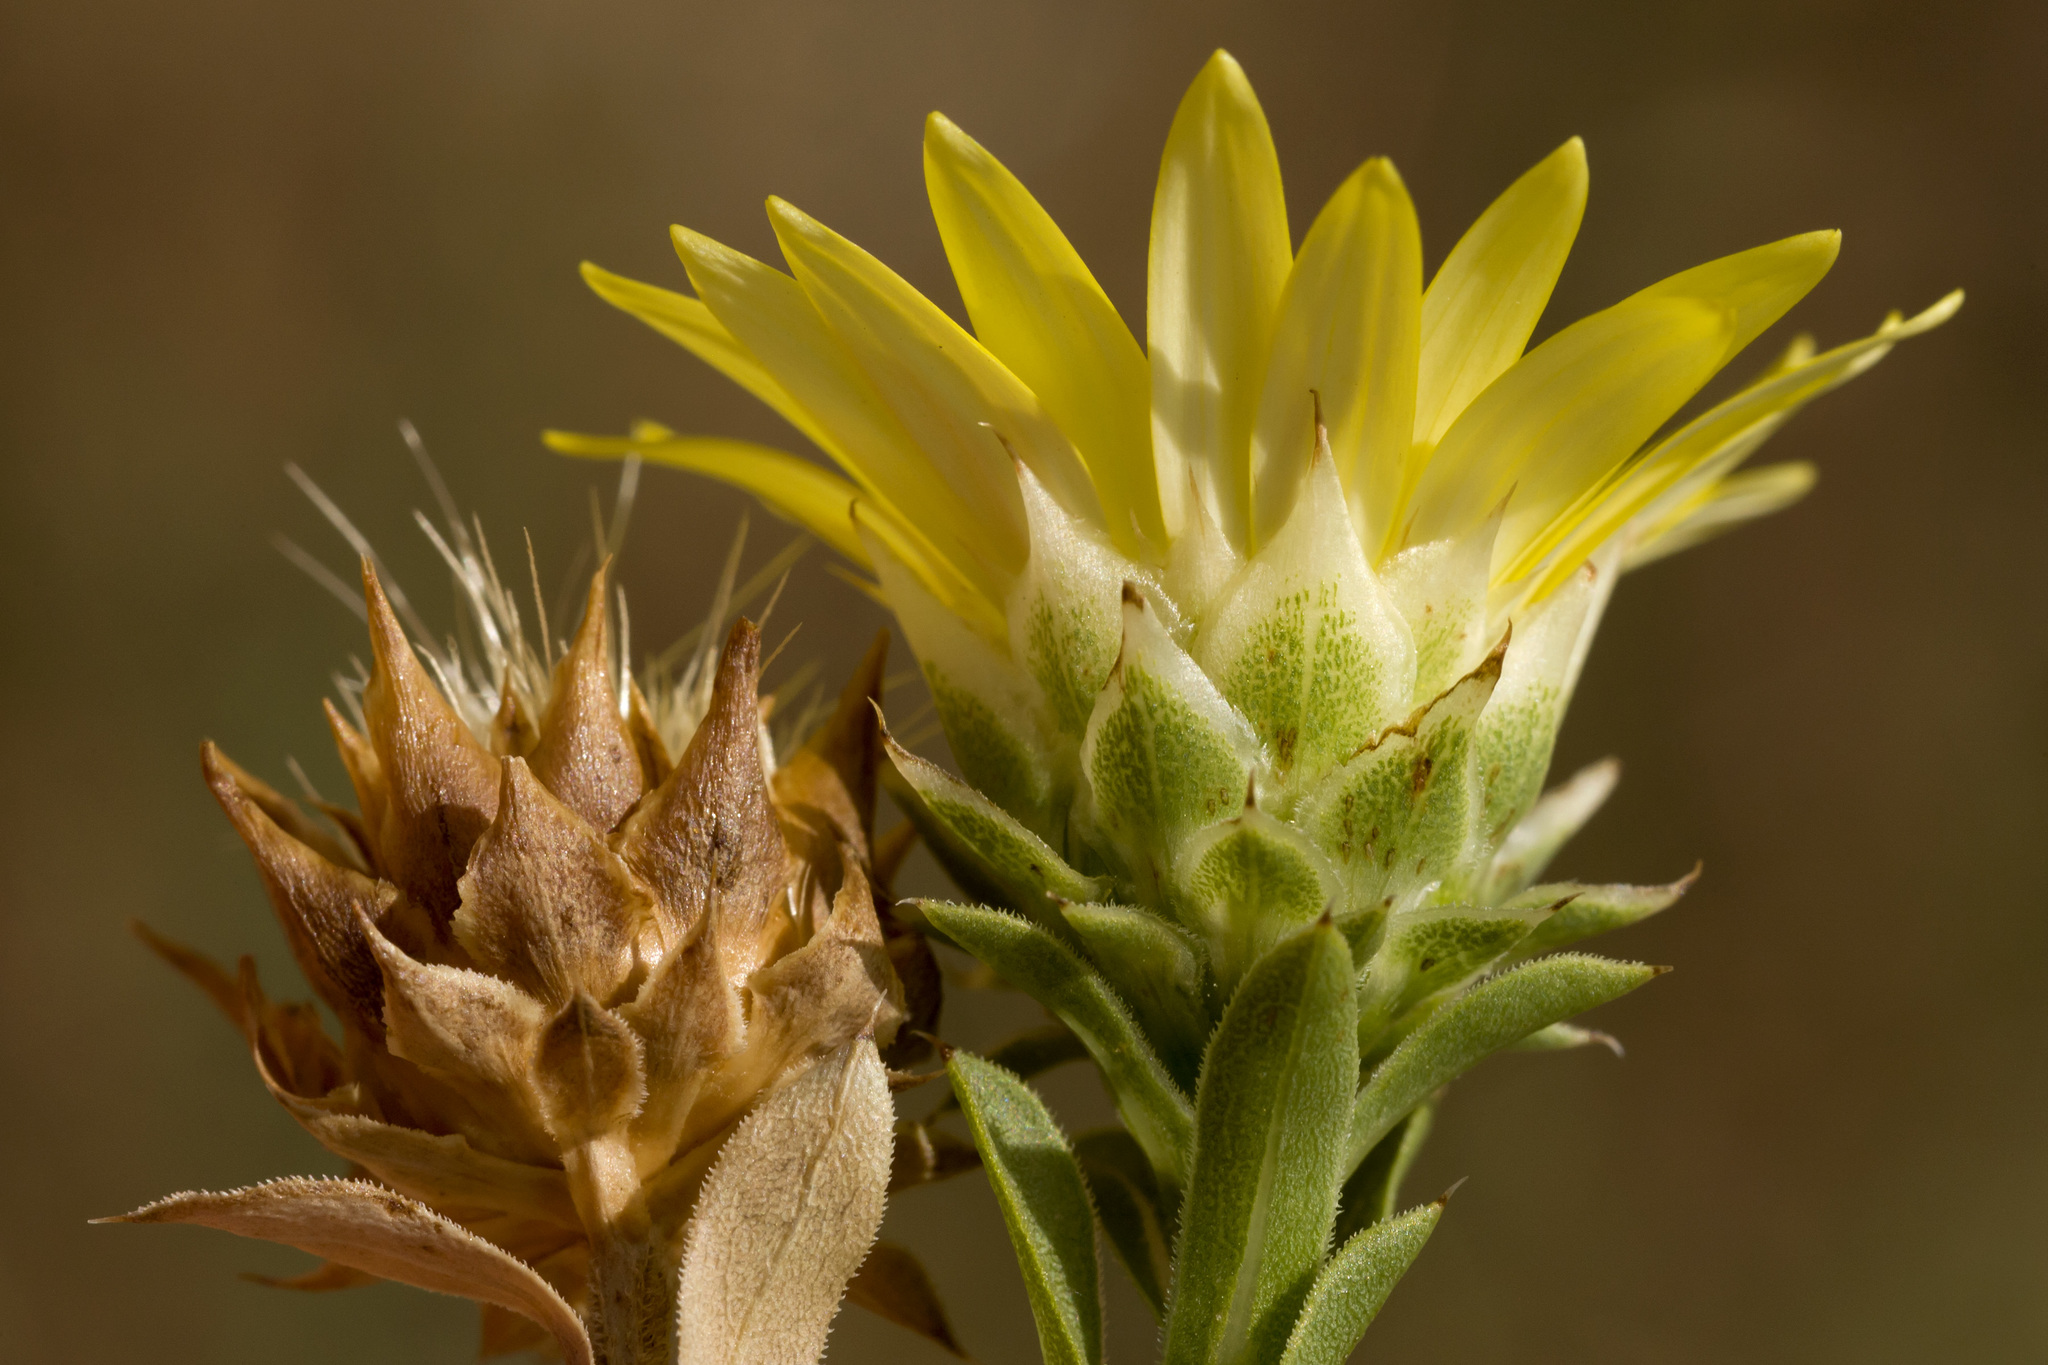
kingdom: Plantae
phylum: Tracheophyta
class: Magnoliopsida
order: Asterales
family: Asteraceae
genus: Xanthisma
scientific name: Xanthisma texanum
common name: Texas sleepy daisy
